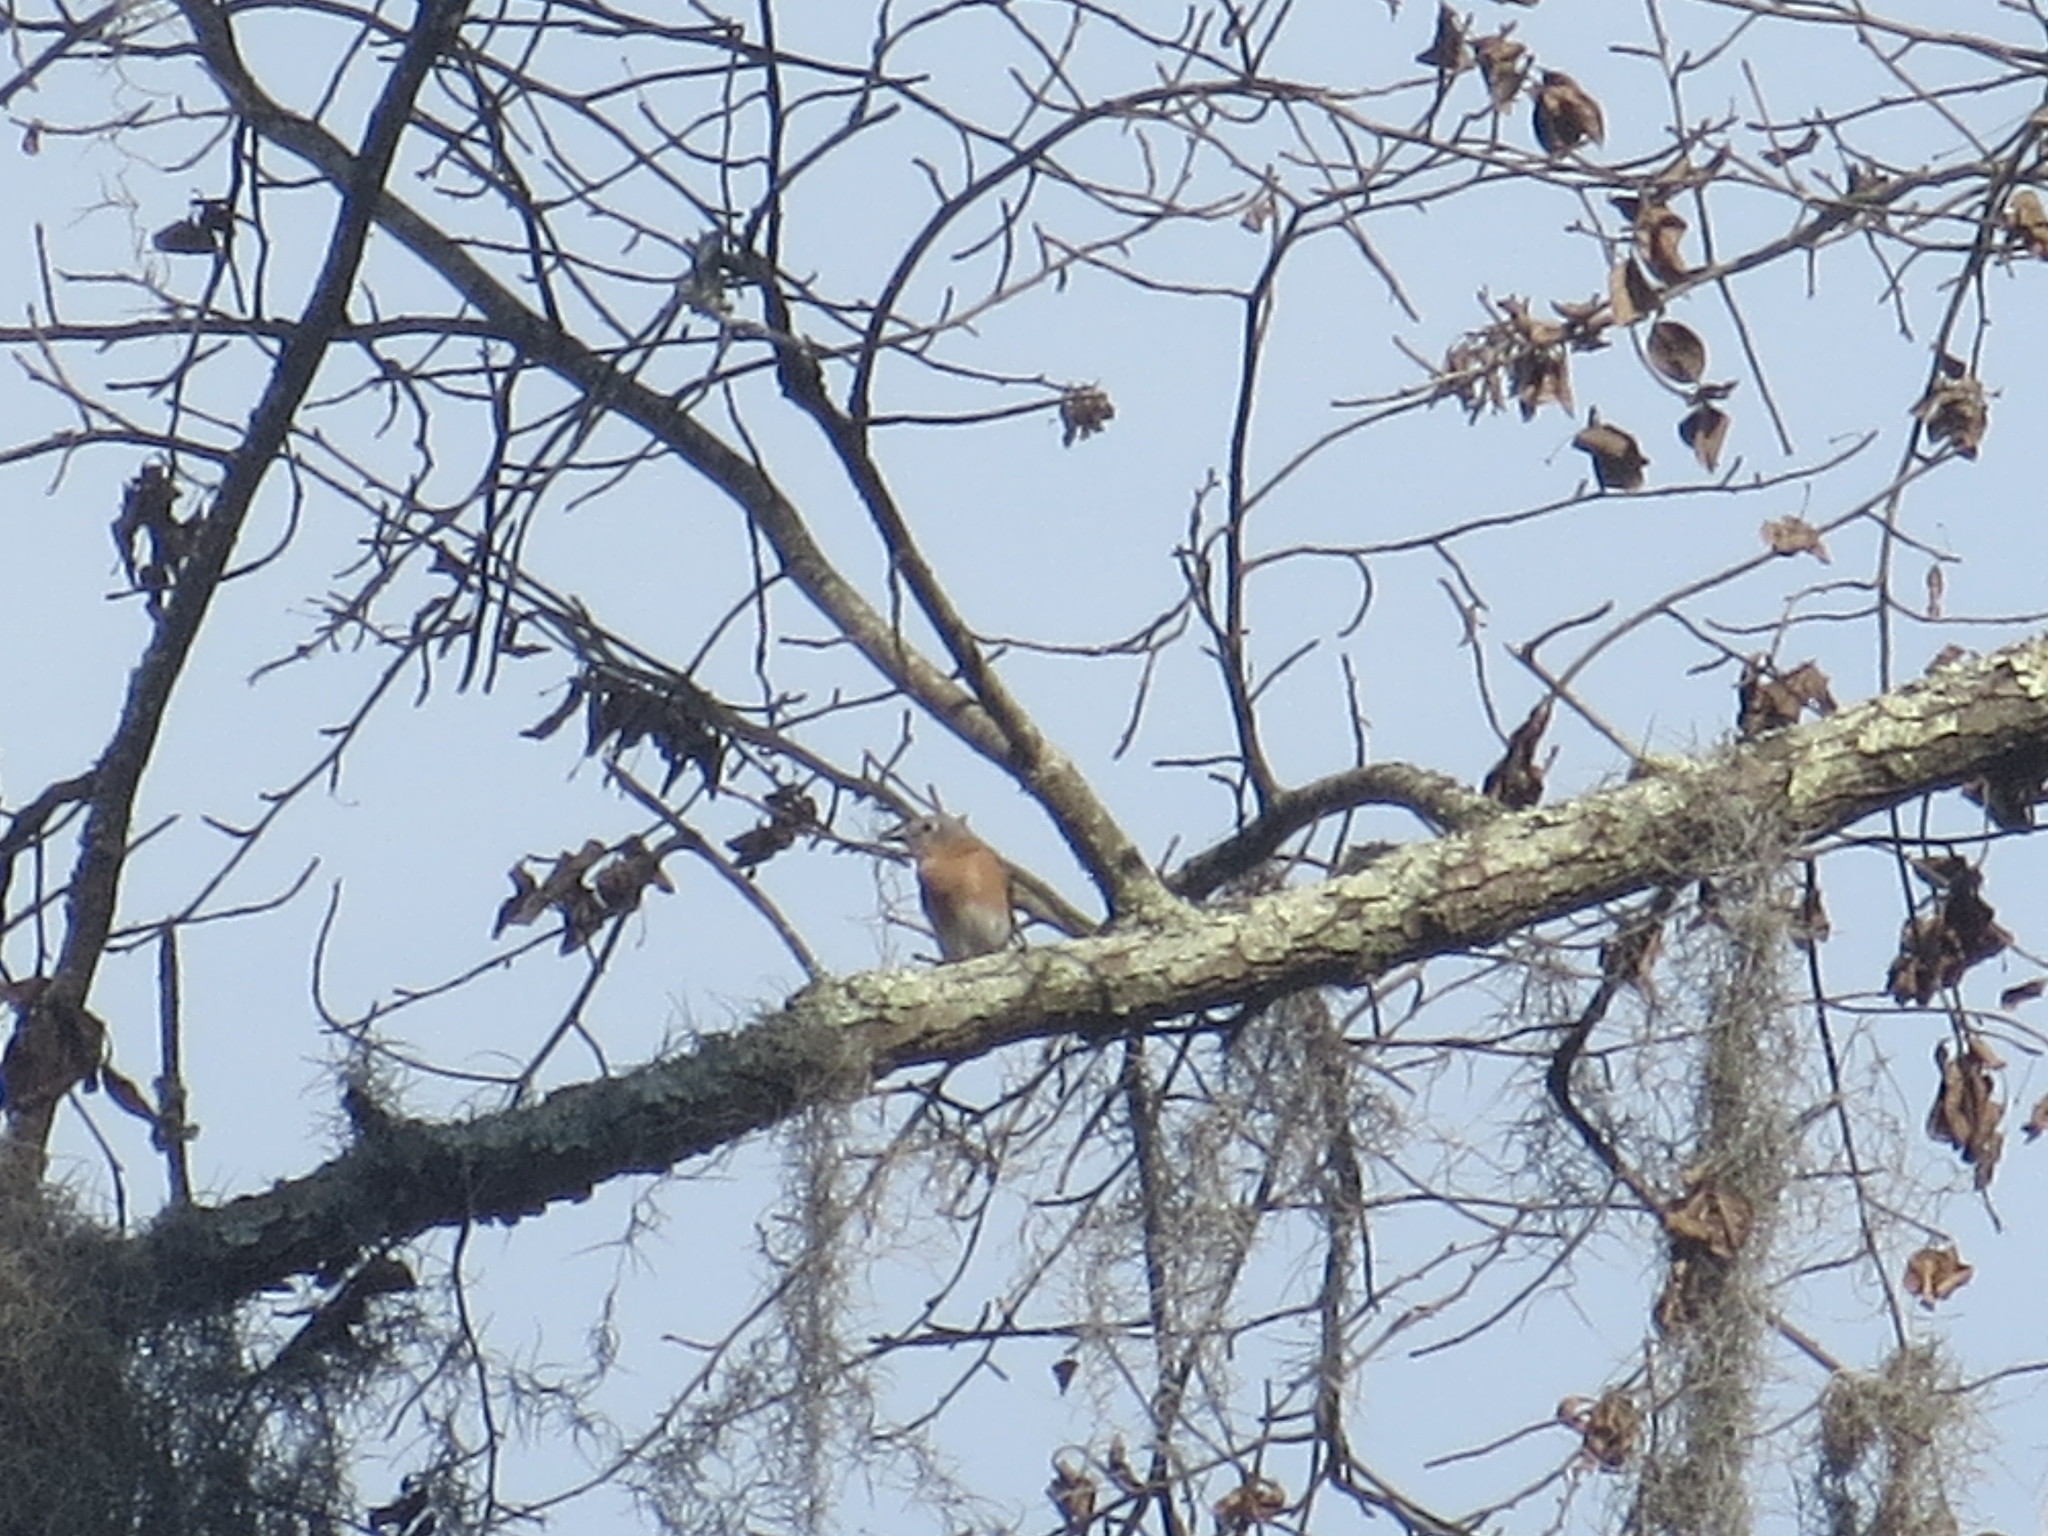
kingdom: Animalia
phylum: Chordata
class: Aves
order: Passeriformes
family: Turdidae
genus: Sialia
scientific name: Sialia sialis
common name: Eastern bluebird
